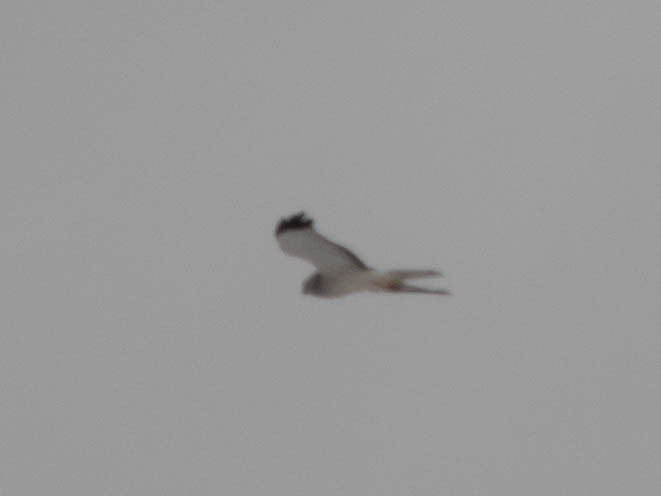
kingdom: Animalia
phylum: Chordata
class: Aves
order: Accipitriformes
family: Accipitridae
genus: Circus
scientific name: Circus cyaneus
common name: Hen harrier
